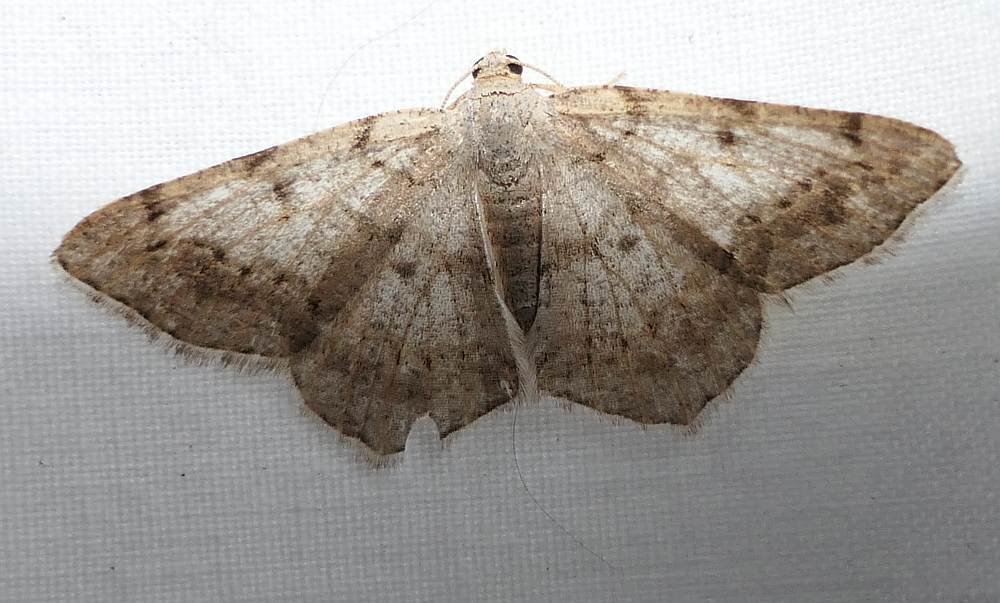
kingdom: Animalia
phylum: Arthropoda
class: Insecta
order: Lepidoptera
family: Geometridae
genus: Digrammia
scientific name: Digrammia ocellinata
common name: Faint-spotted angle
